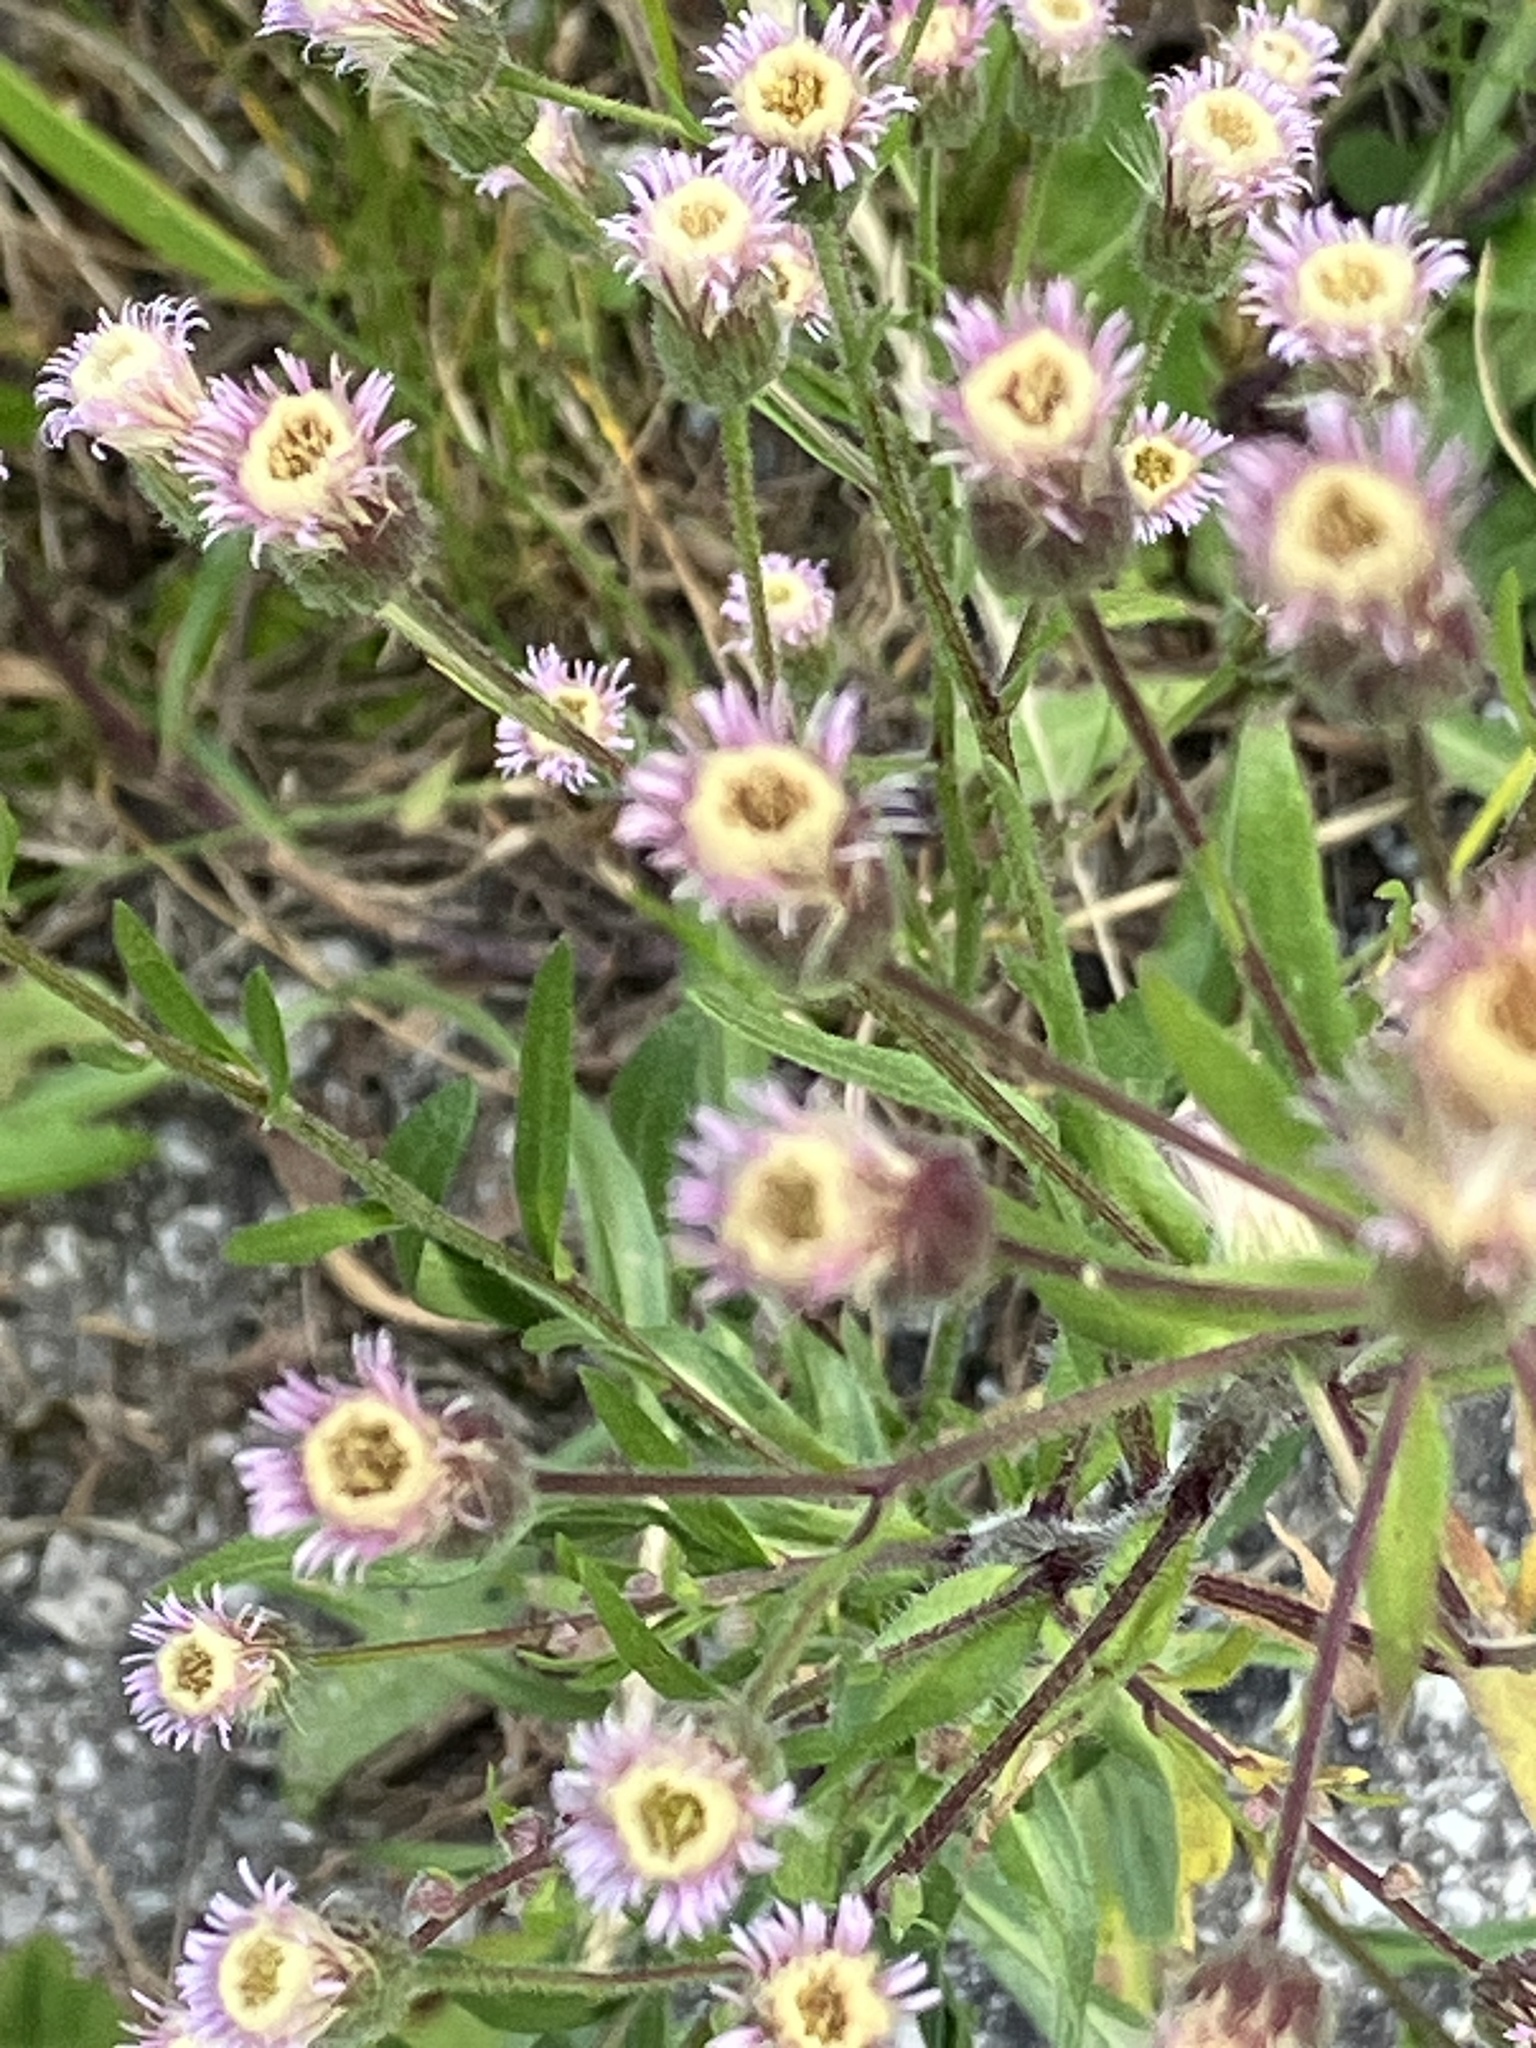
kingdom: Plantae
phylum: Tracheophyta
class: Magnoliopsida
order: Asterales
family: Asteraceae
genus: Erigeron
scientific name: Erigeron acris
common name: Blue fleabane
